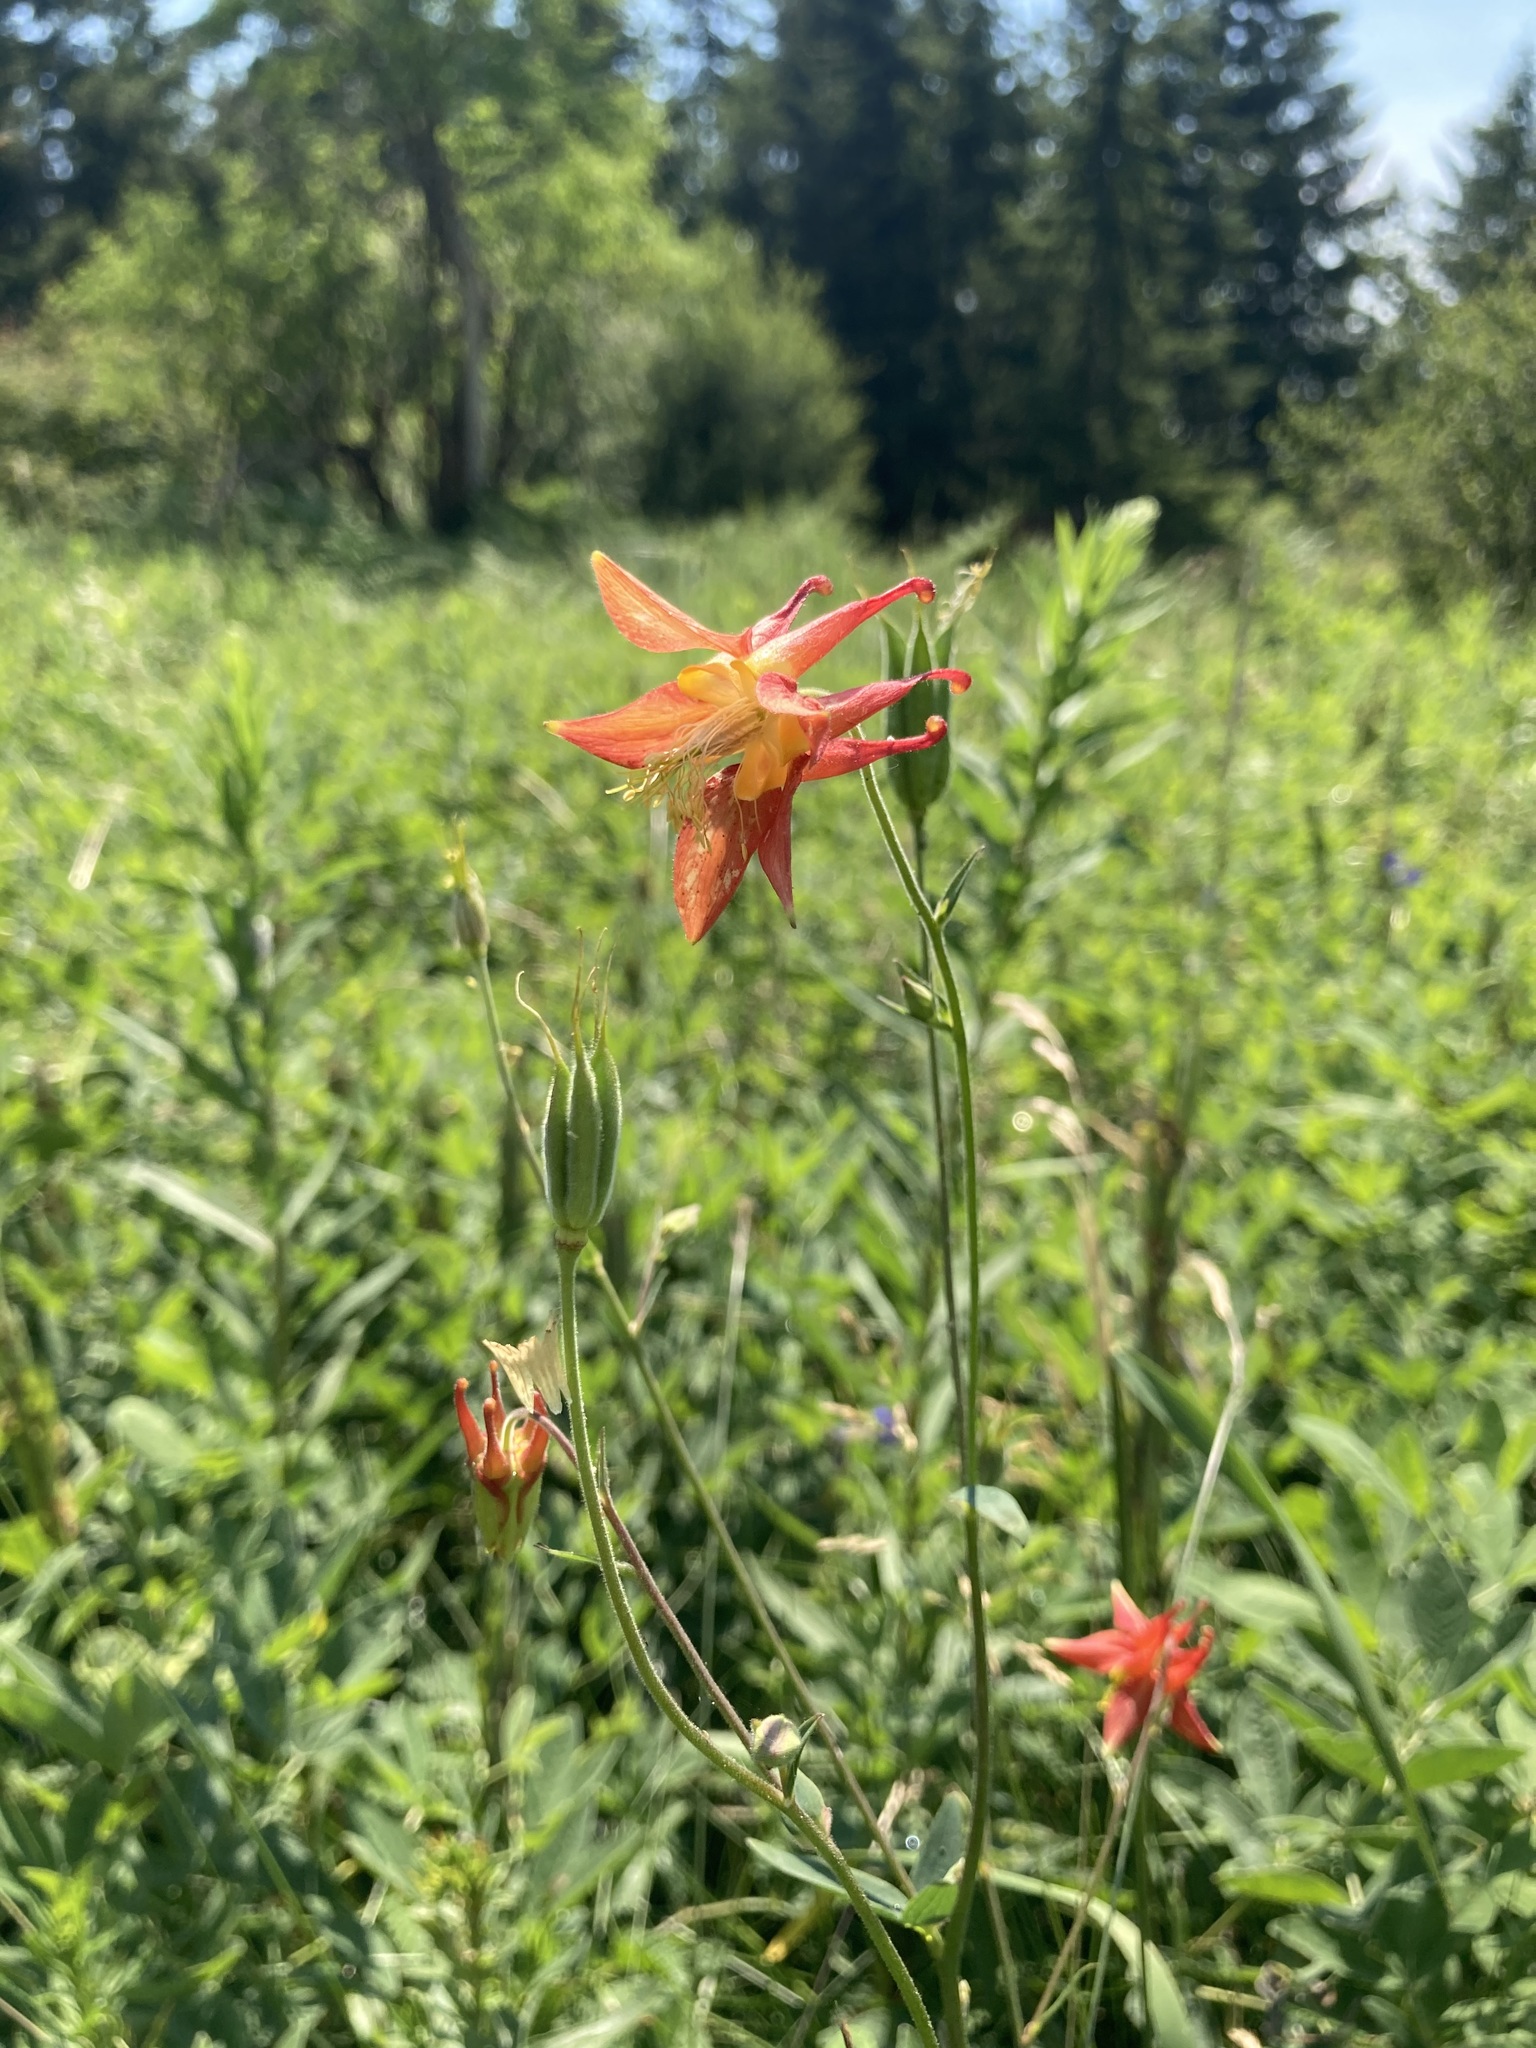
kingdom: Plantae
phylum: Tracheophyta
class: Magnoliopsida
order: Ranunculales
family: Ranunculaceae
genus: Aquilegia
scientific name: Aquilegia formosa
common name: Sitka columbine
